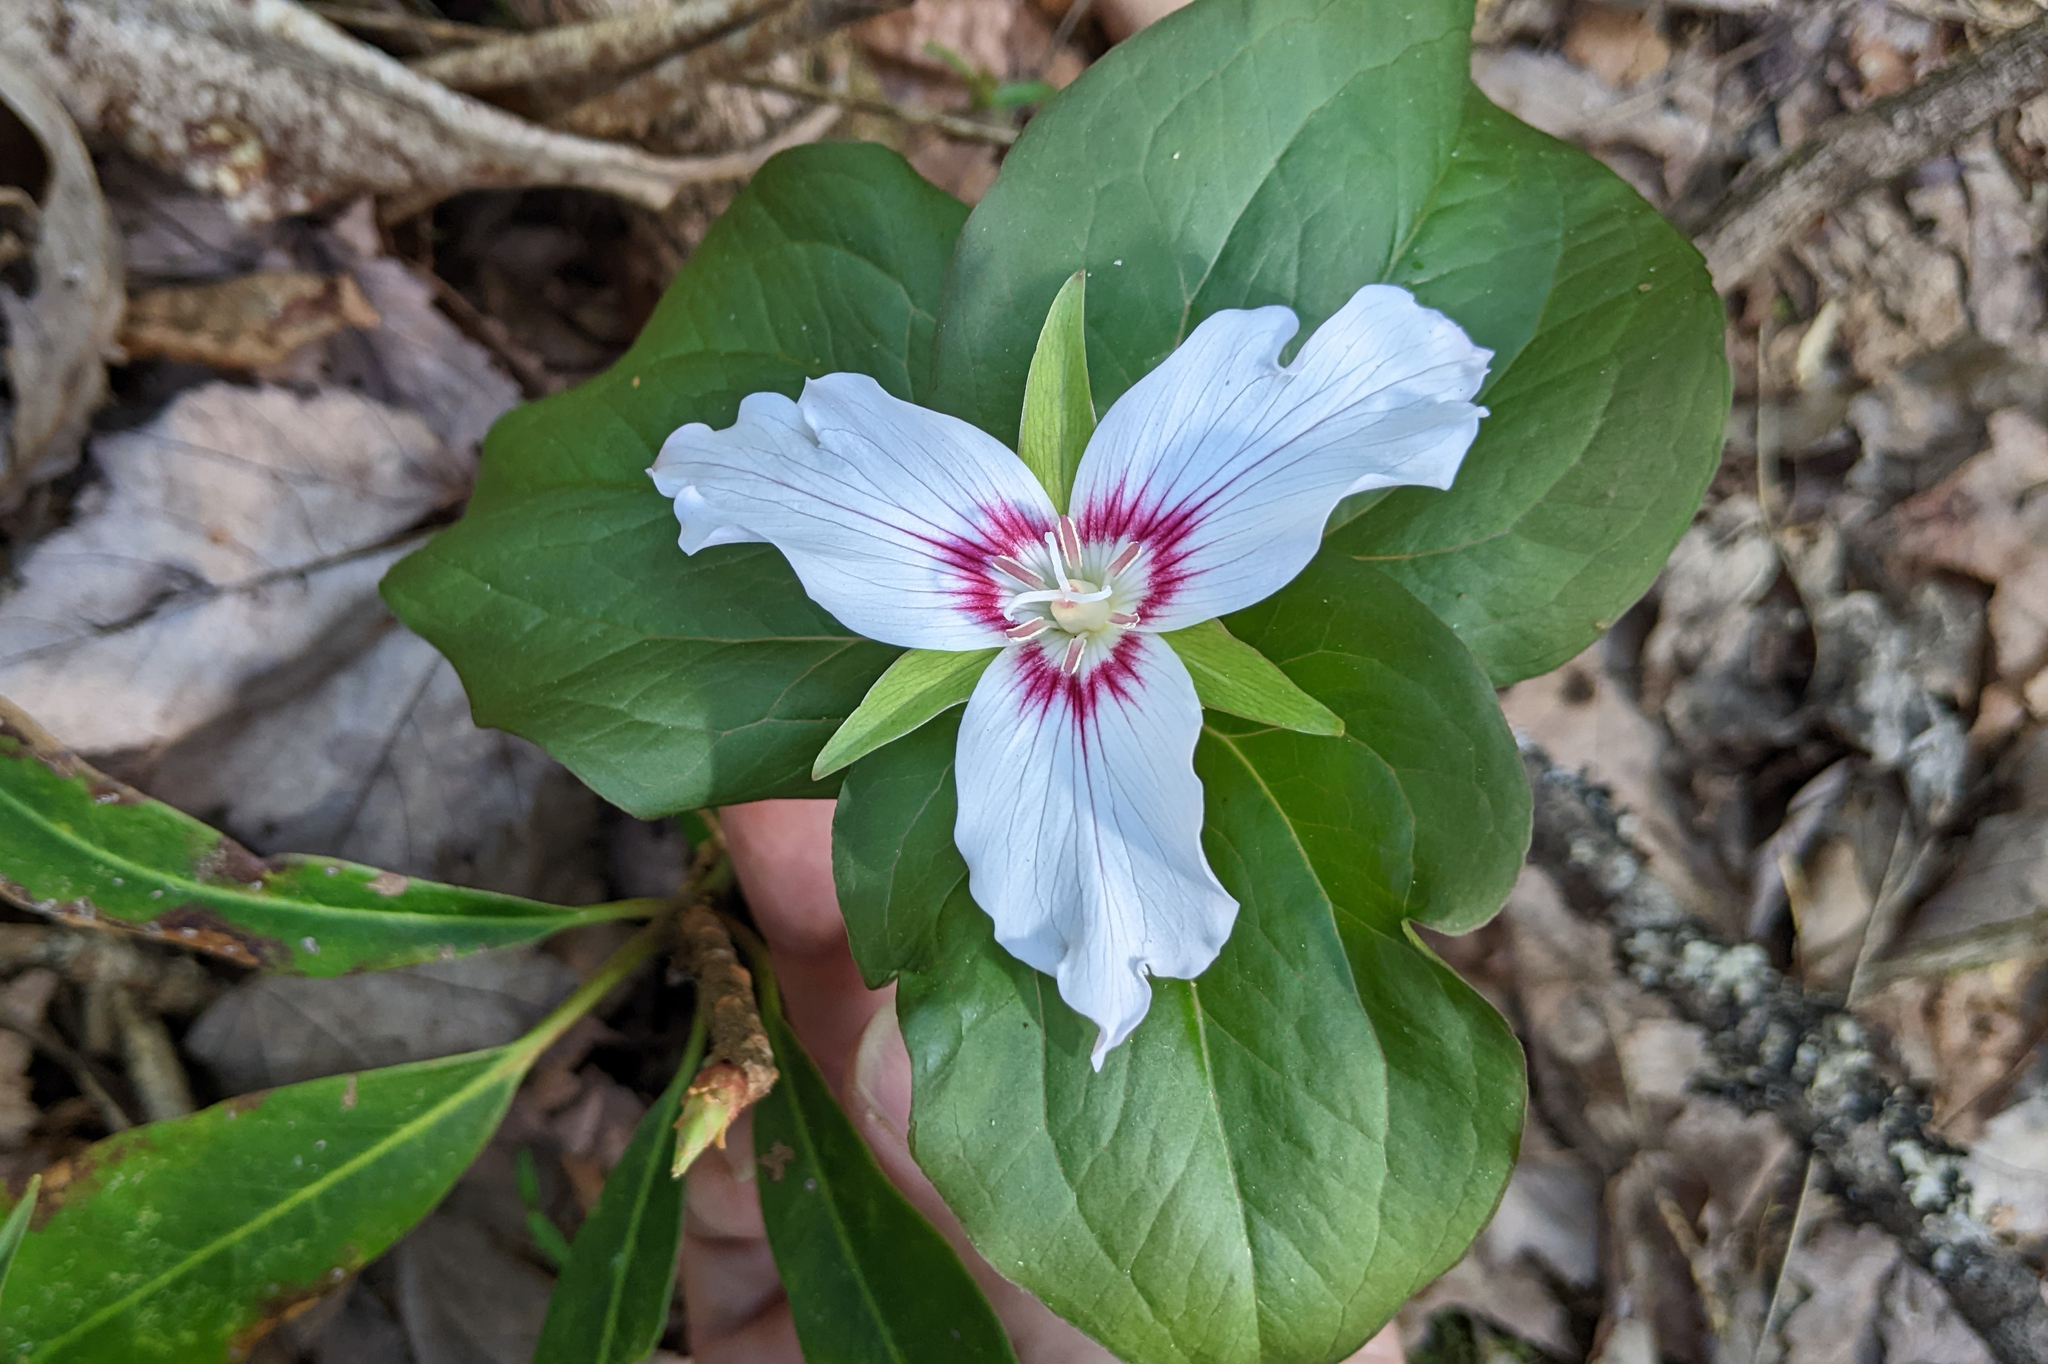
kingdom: Plantae
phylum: Tracheophyta
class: Liliopsida
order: Liliales
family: Melanthiaceae
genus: Trillium
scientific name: Trillium undulatum
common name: Paint trillium
